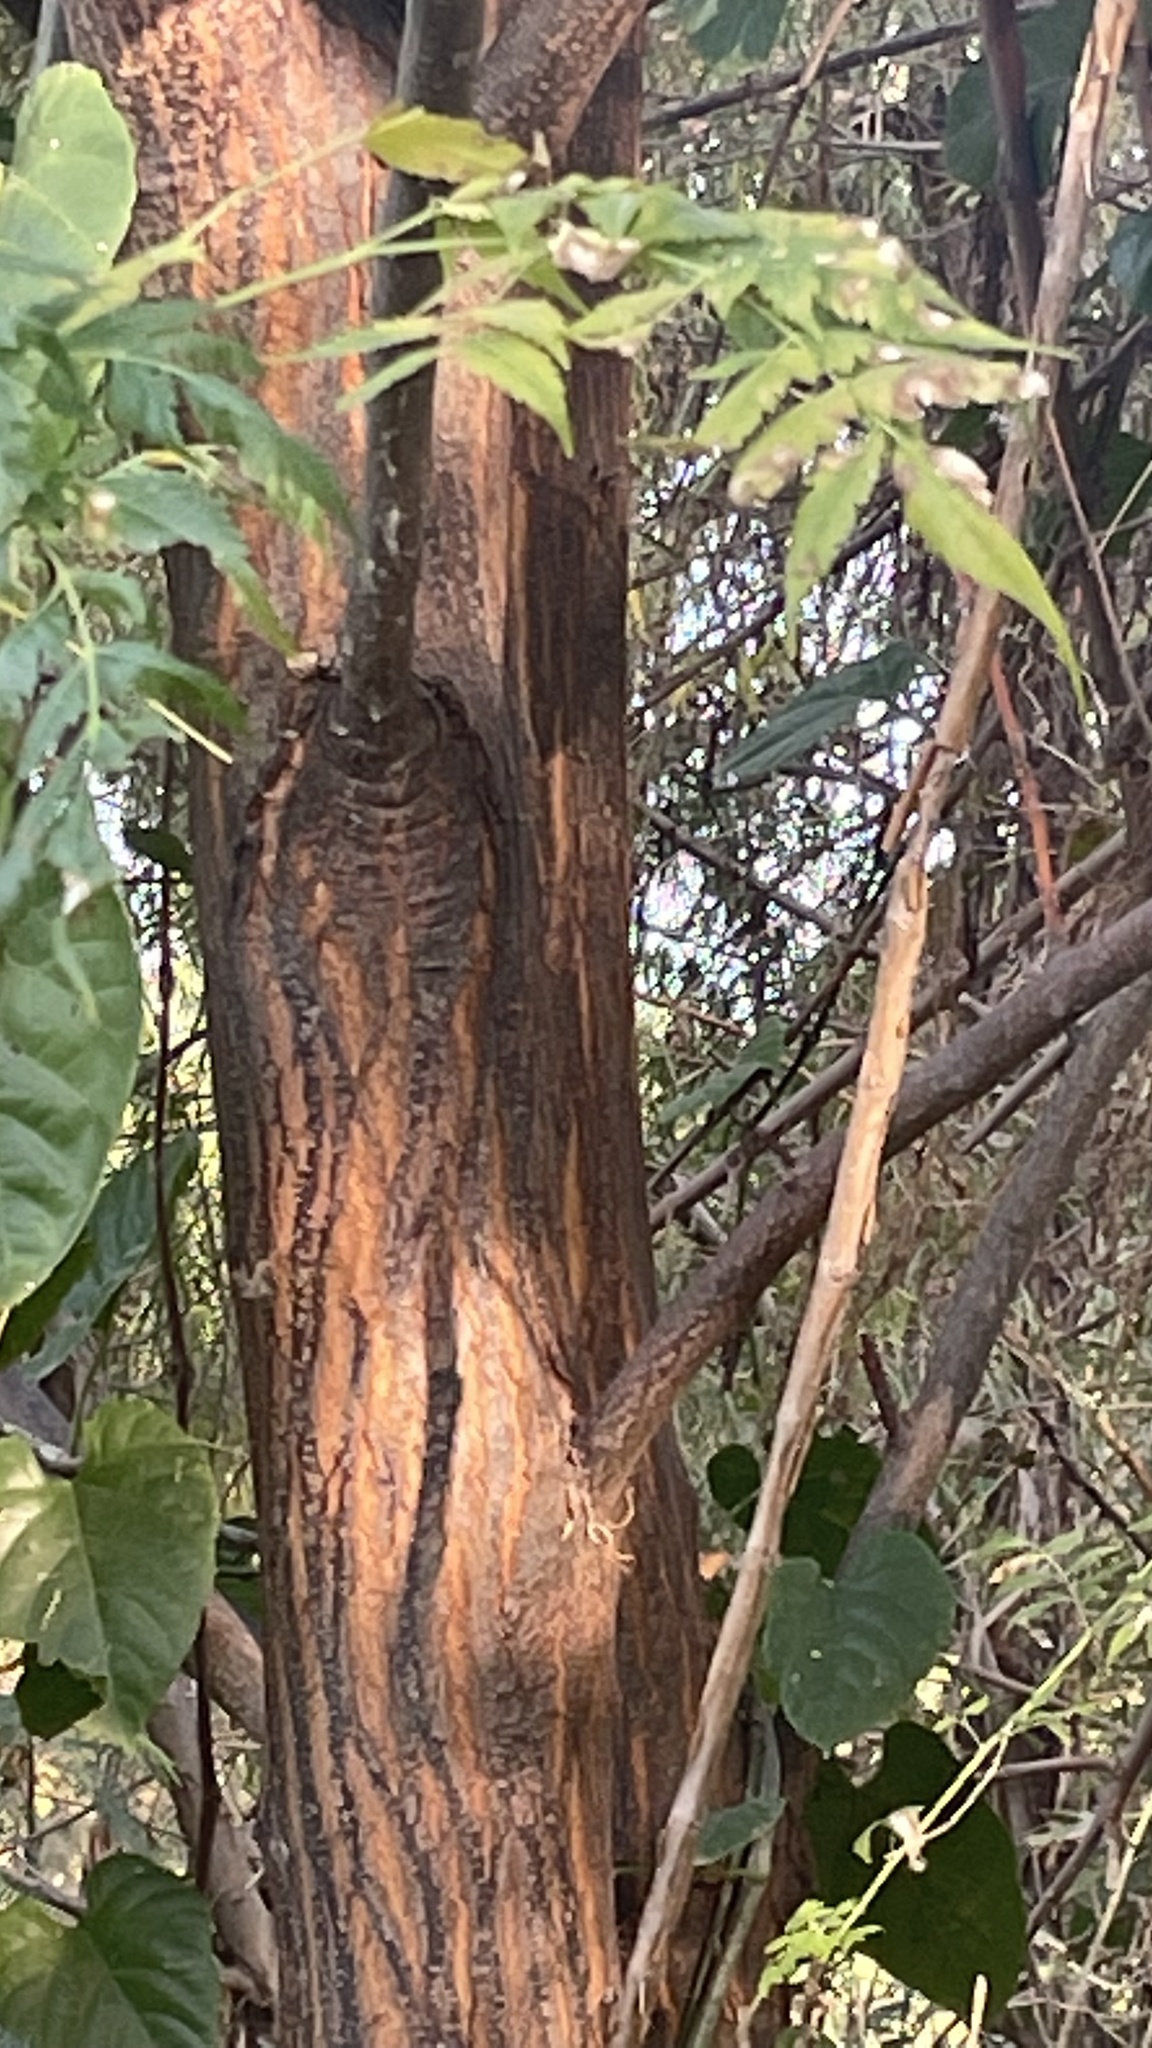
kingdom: Plantae
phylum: Tracheophyta
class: Magnoliopsida
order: Sapindales
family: Meliaceae
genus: Melia
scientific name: Melia azedarach
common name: Chinaberrytree
